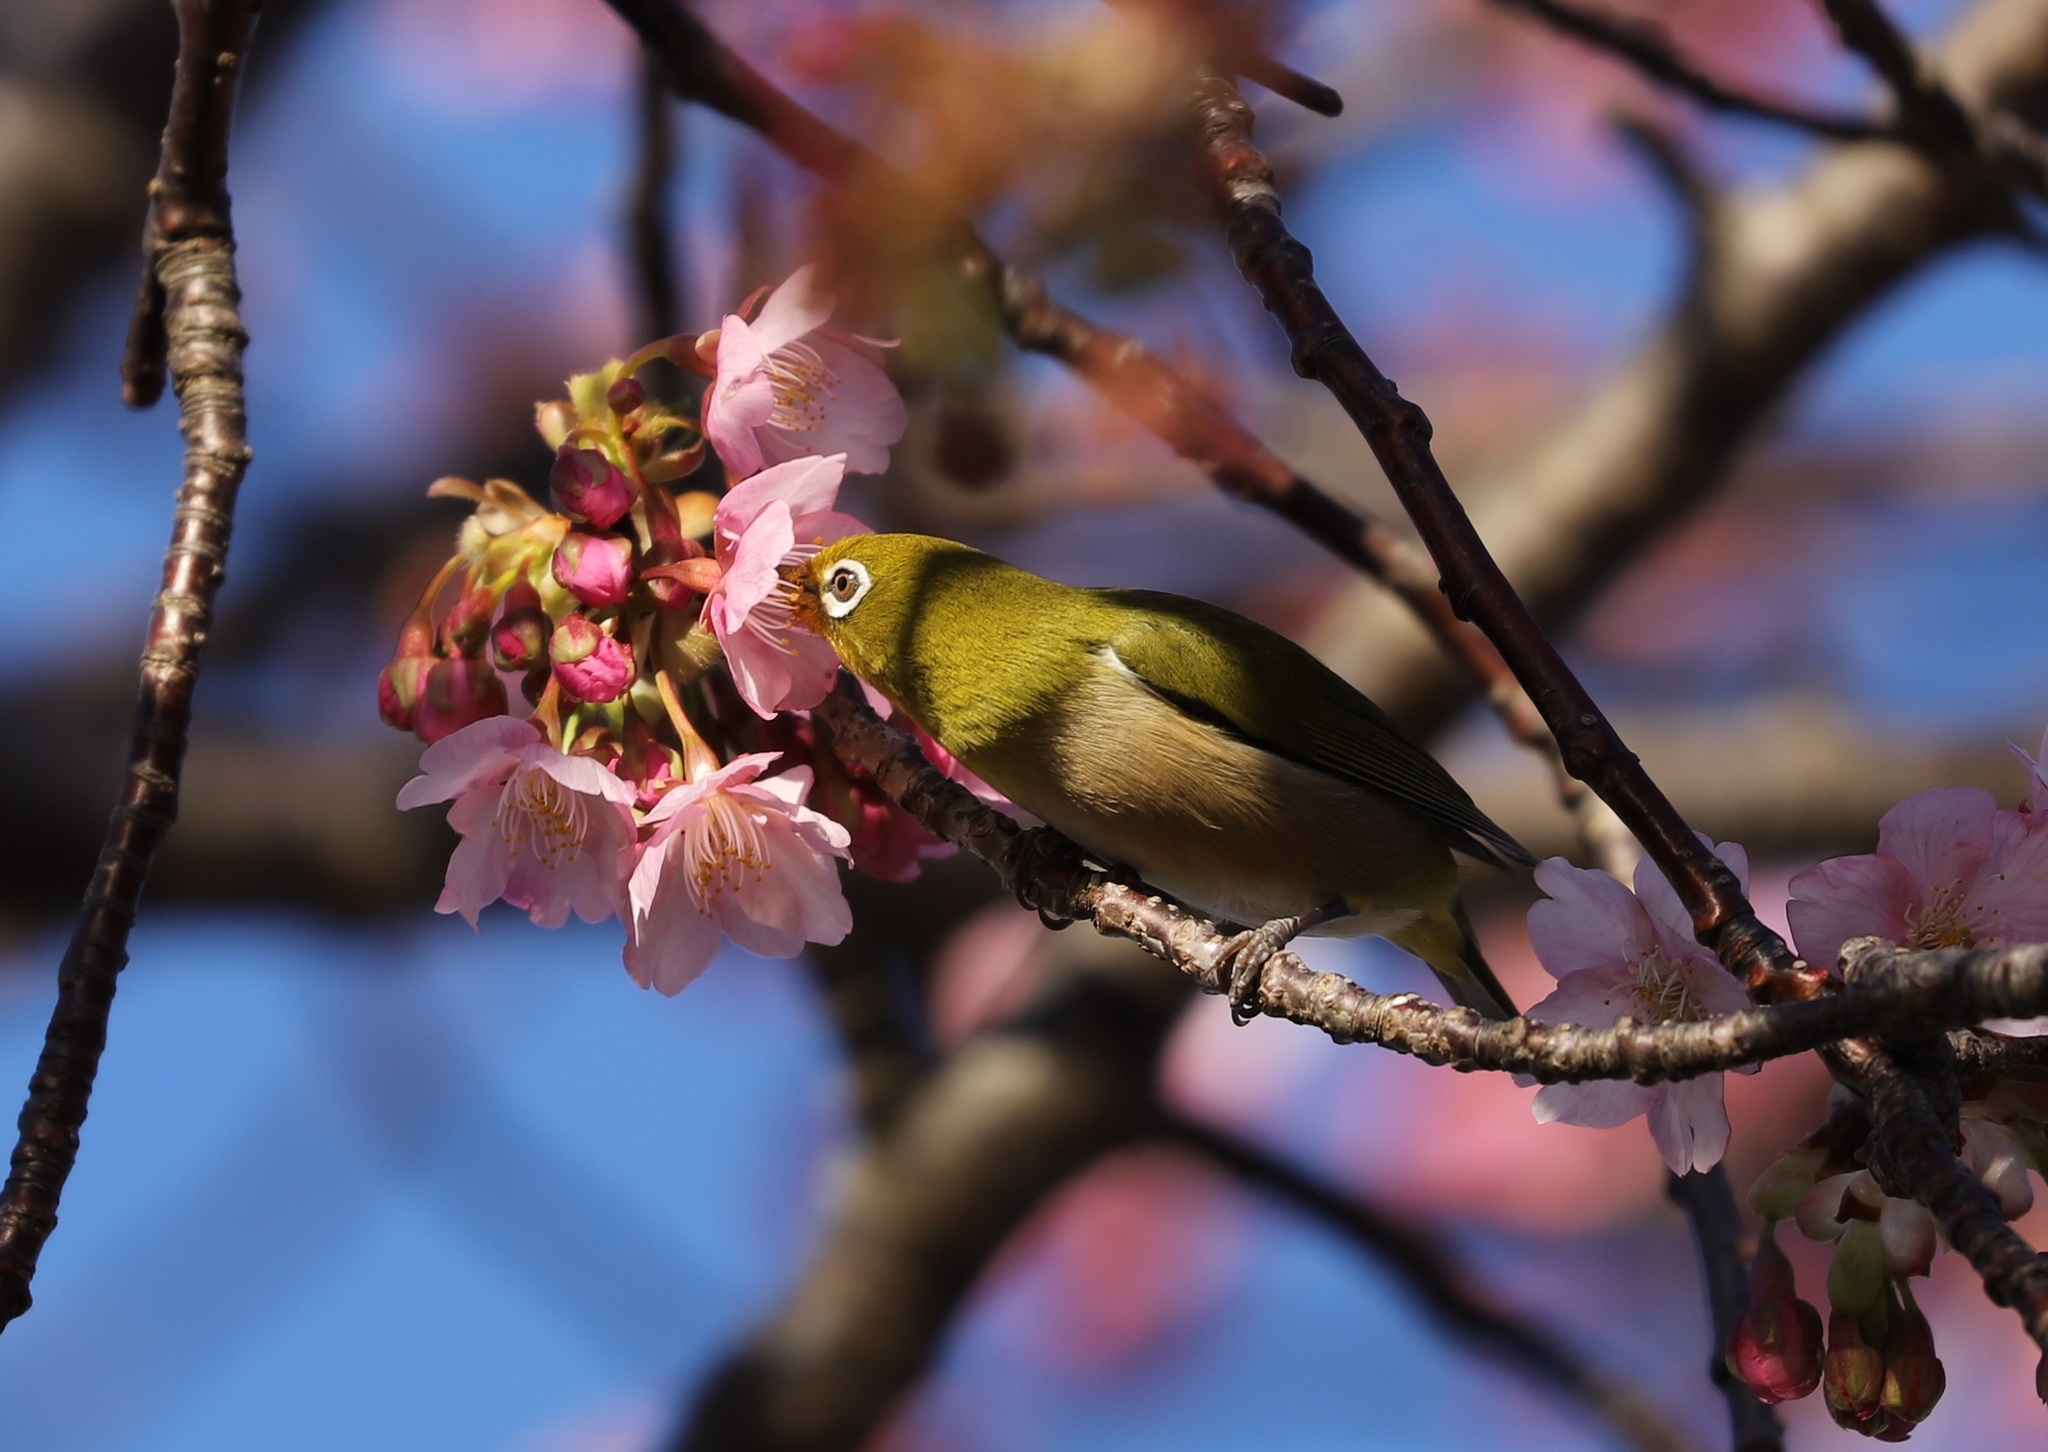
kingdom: Animalia
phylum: Chordata
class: Aves
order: Passeriformes
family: Zosteropidae
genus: Zosterops
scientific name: Zosterops japonicus
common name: Japanese white-eye
